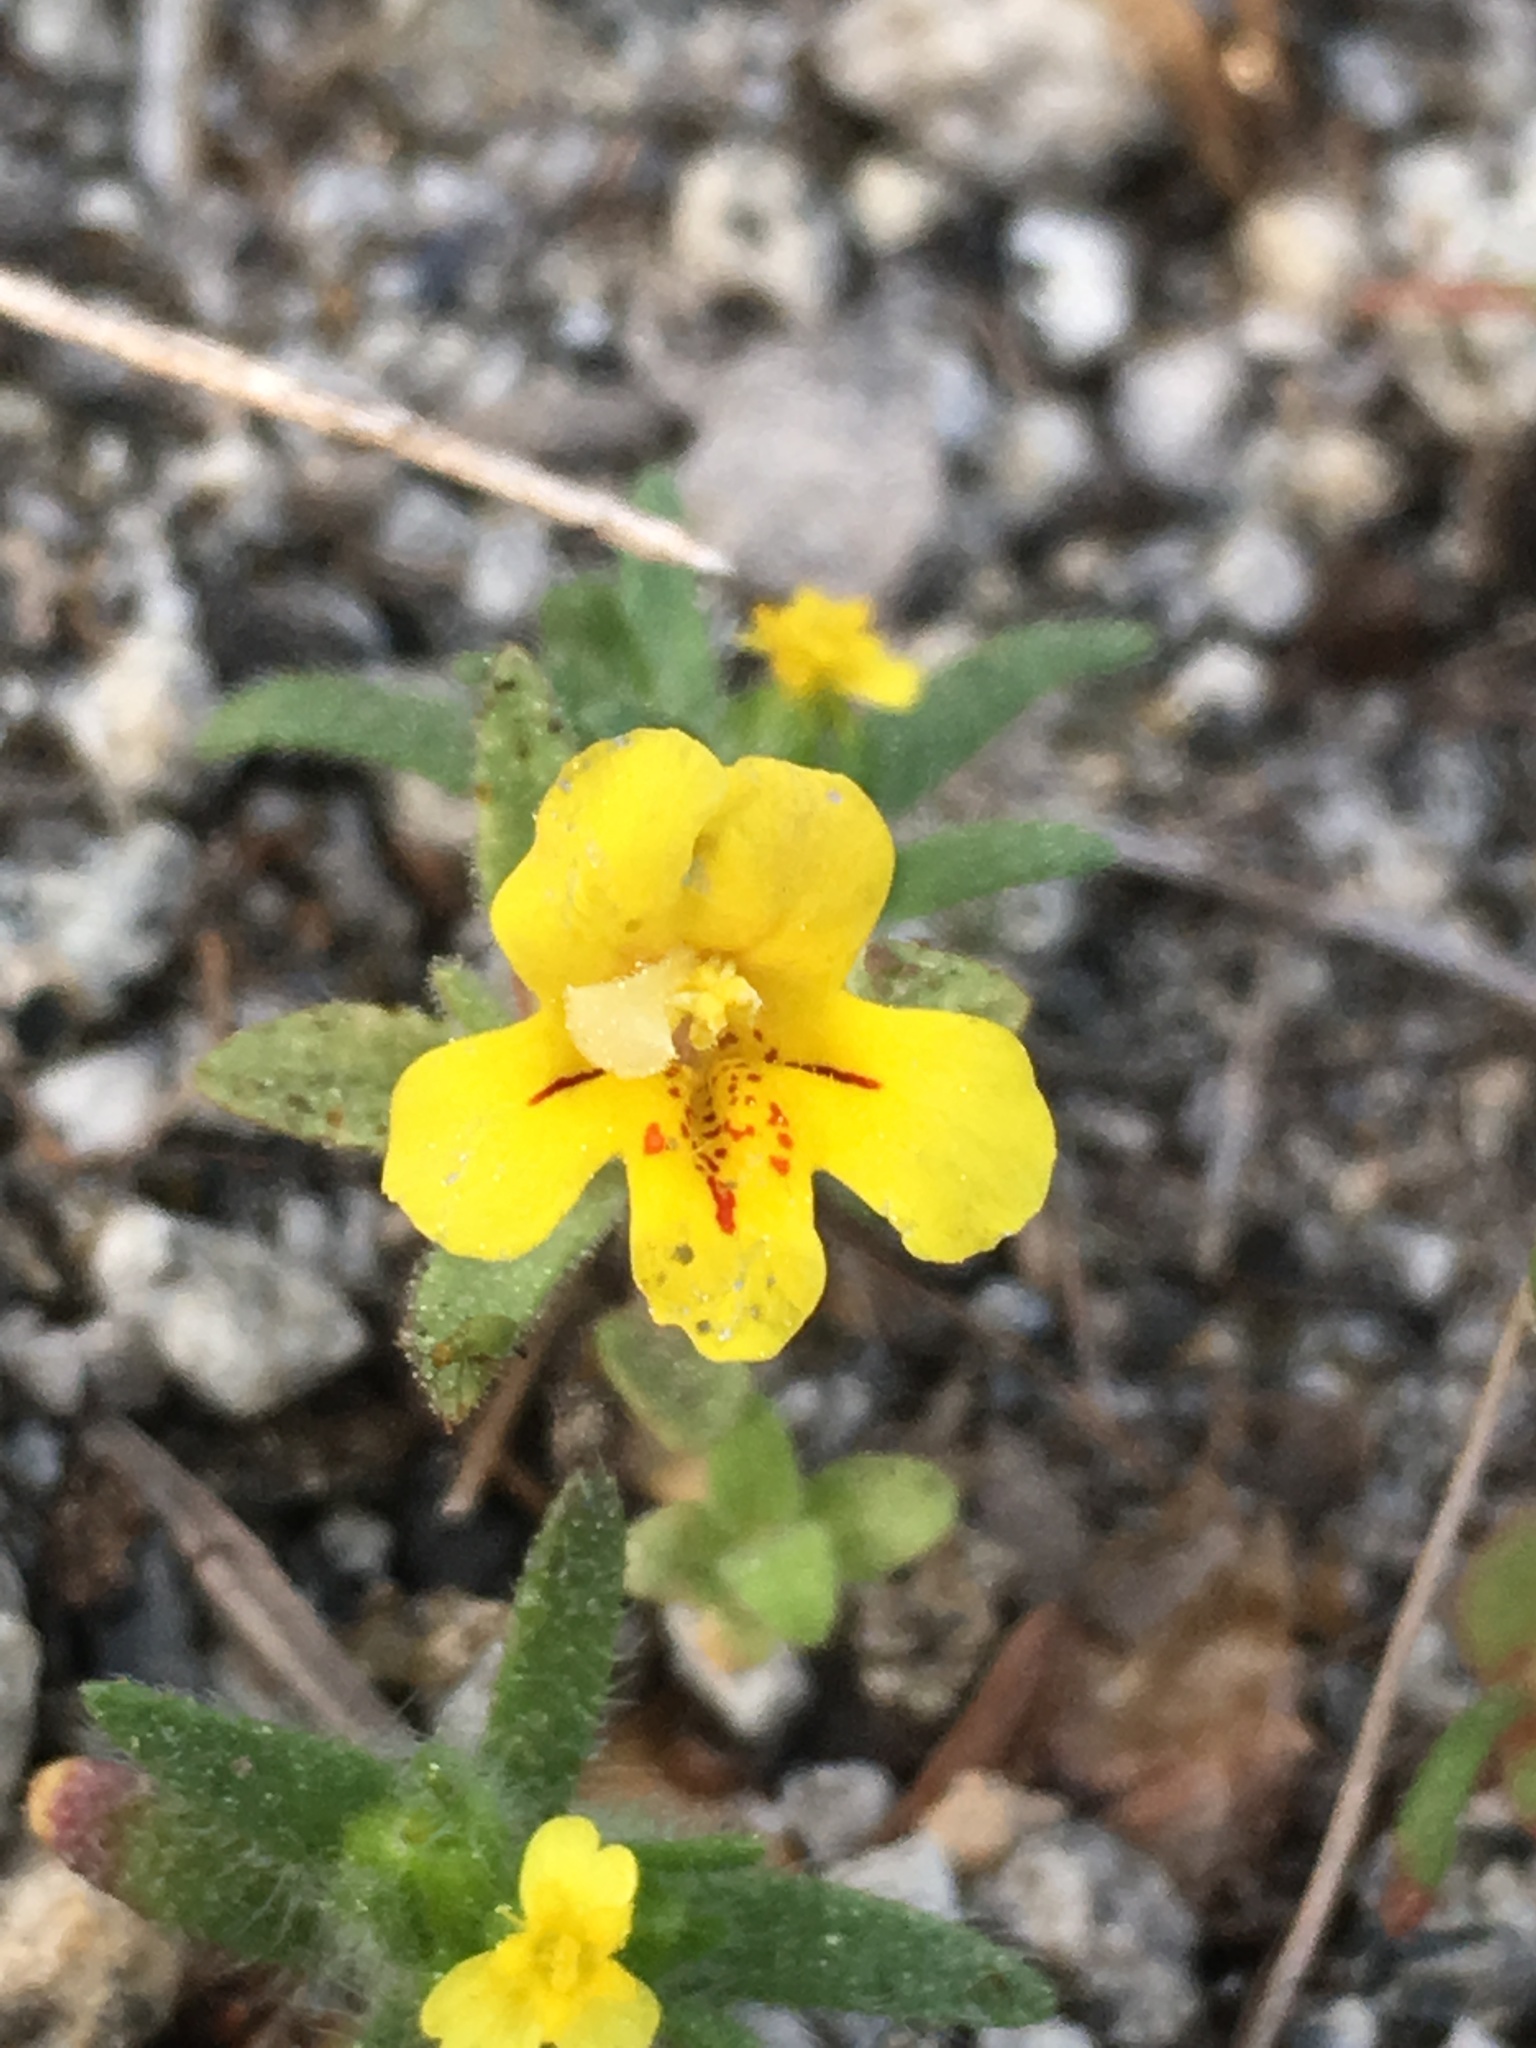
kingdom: Plantae
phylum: Tracheophyta
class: Magnoliopsida
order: Lamiales
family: Phrymaceae
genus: Diplacus
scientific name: Diplacus mephiticus
